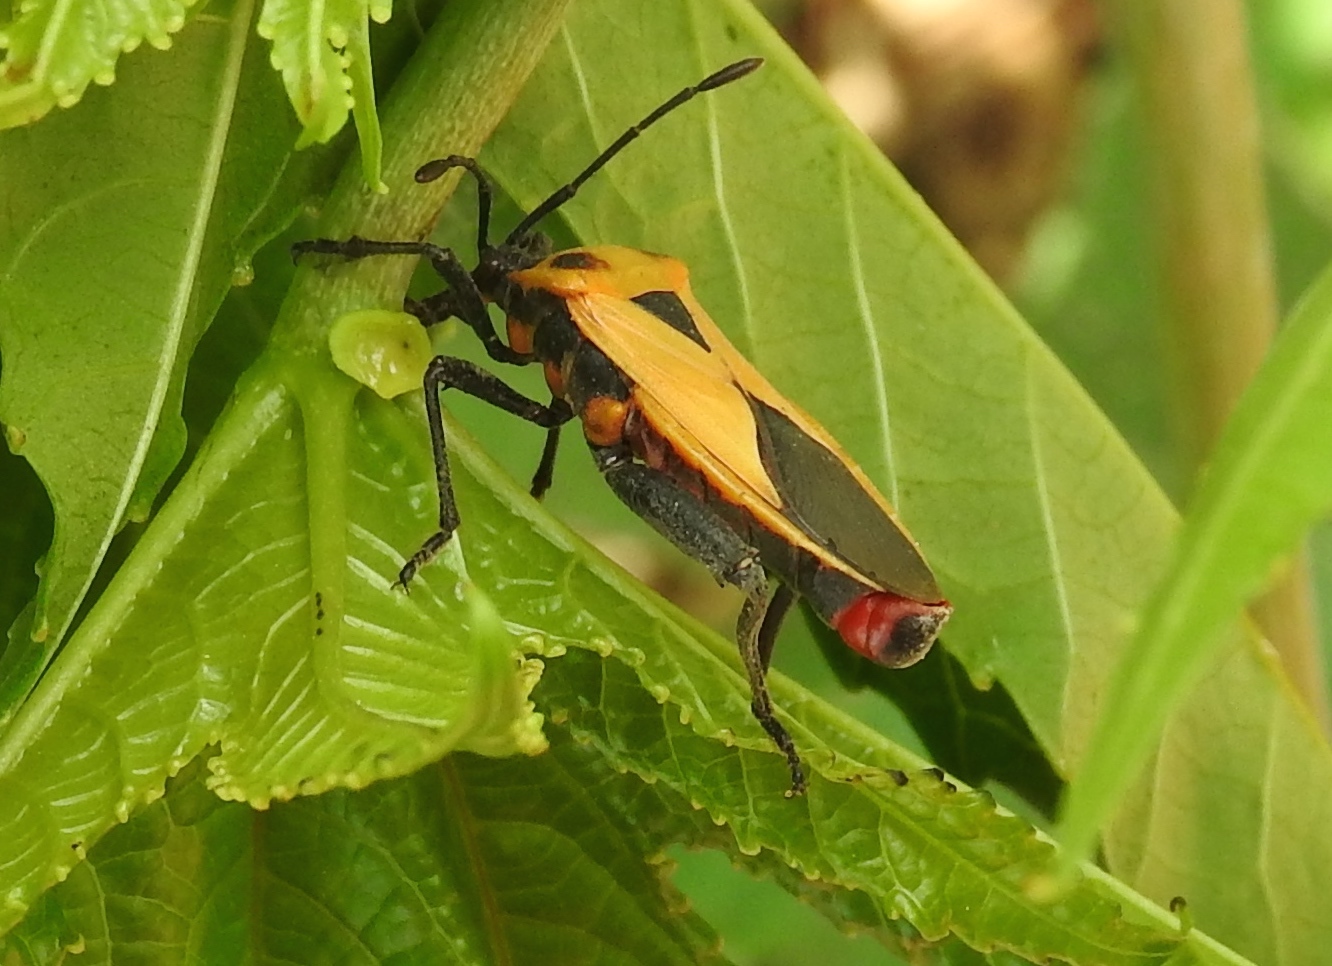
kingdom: Animalia
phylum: Arthropoda
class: Insecta
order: Hemiptera
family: Coreidae
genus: Sagotylus
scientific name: Sagotylus confluens
